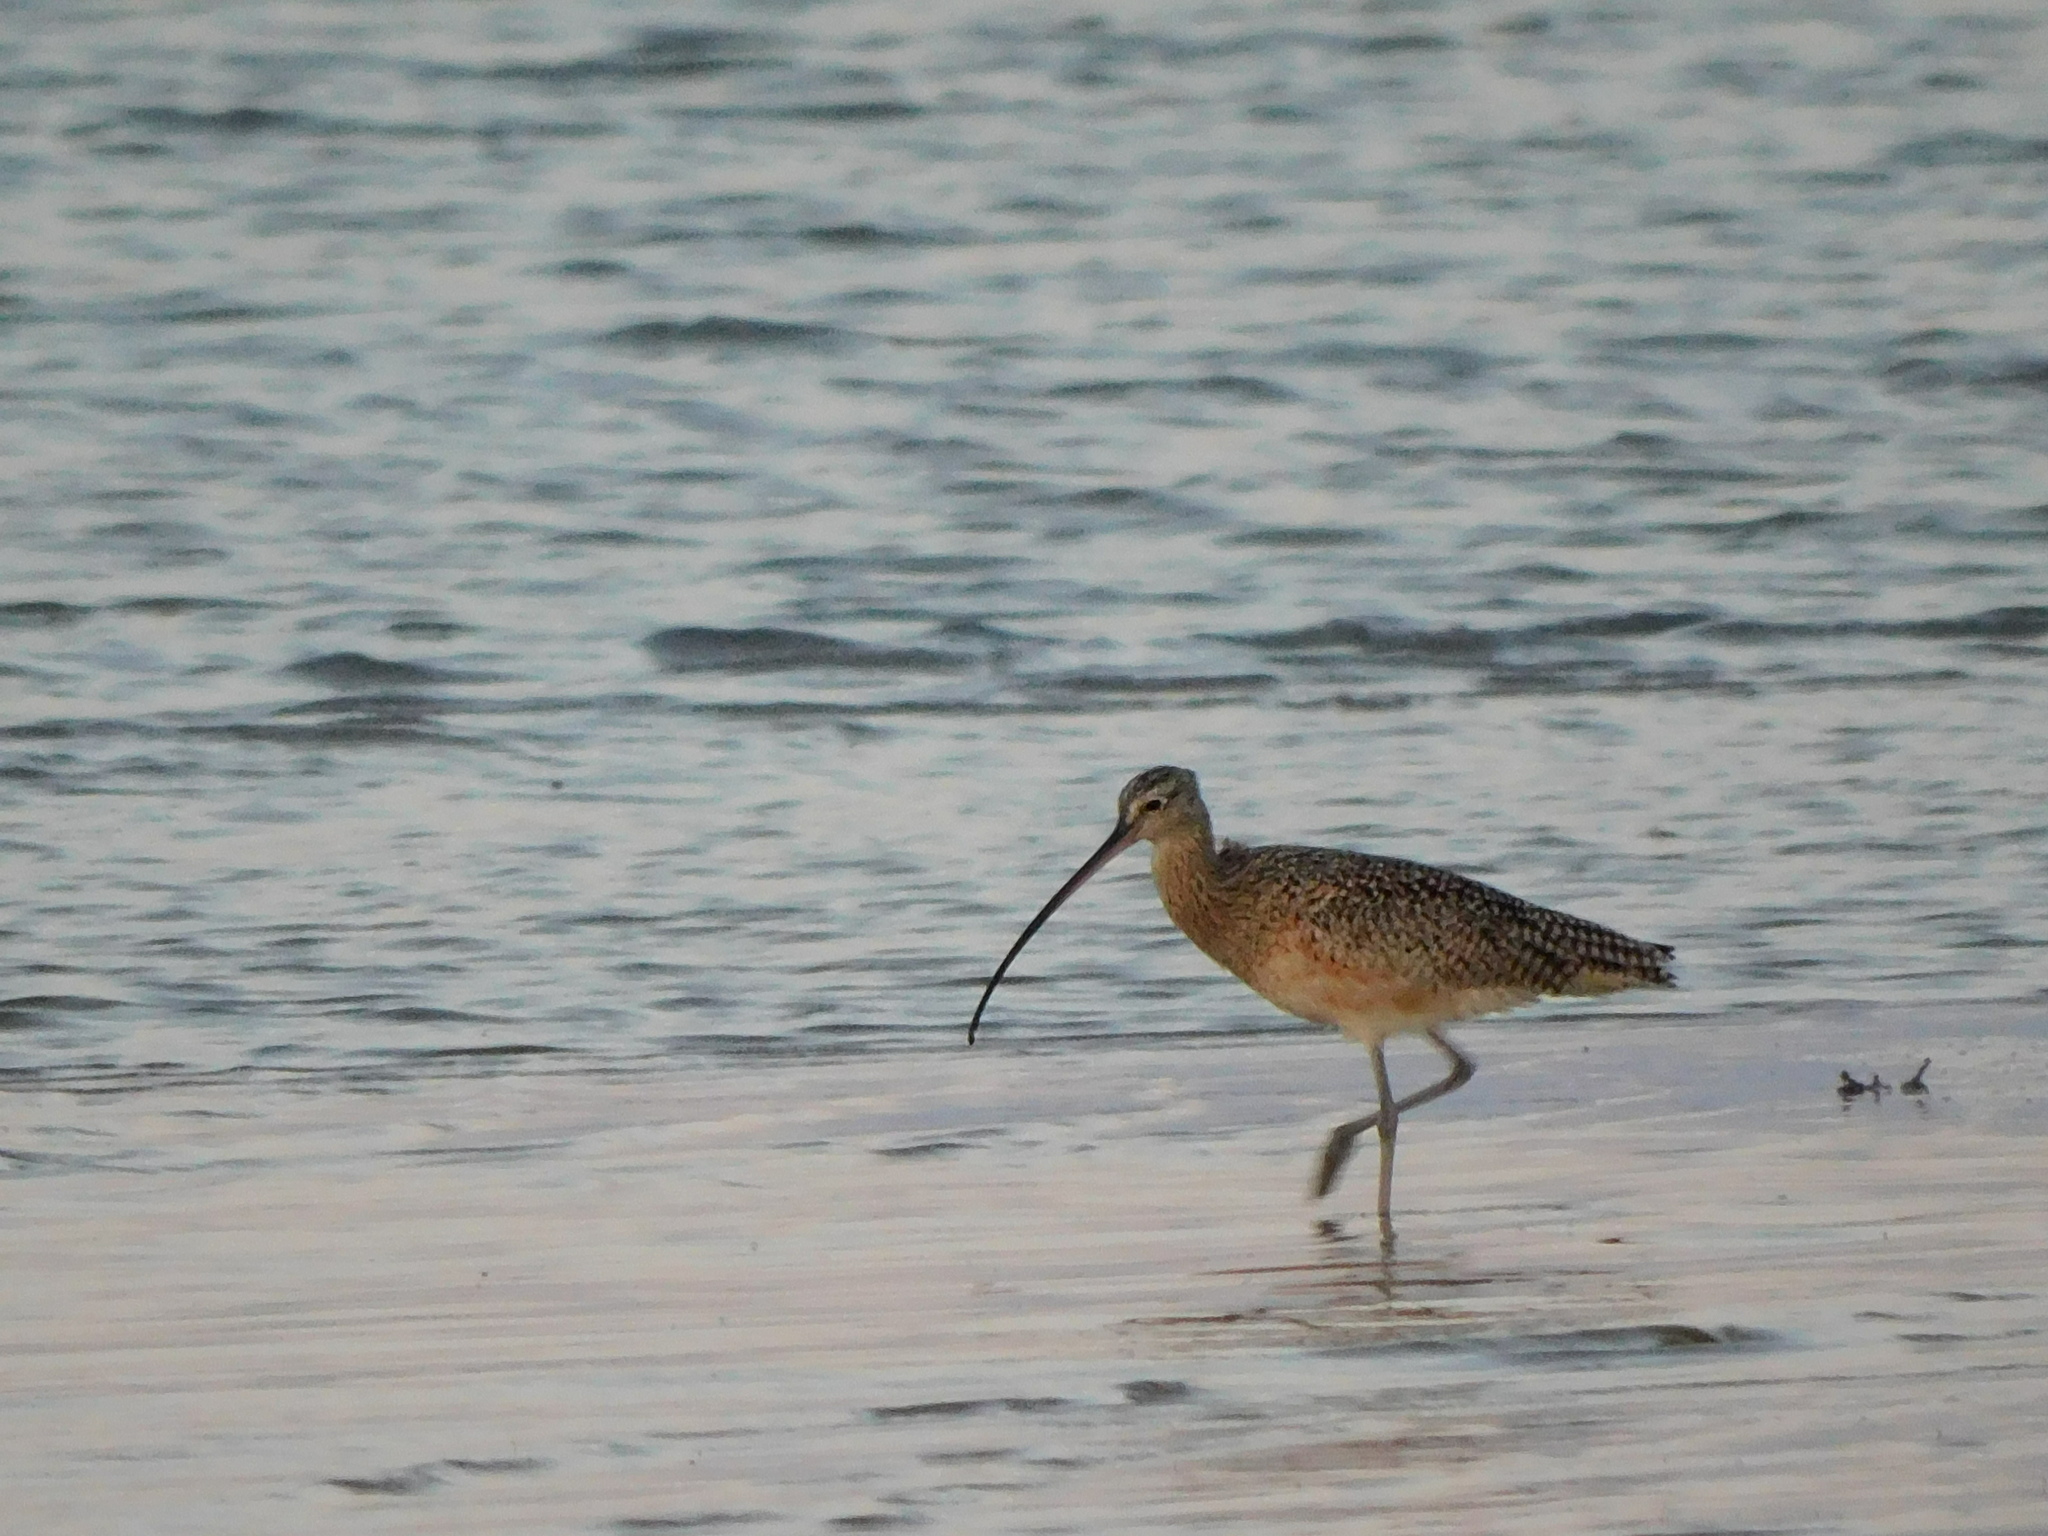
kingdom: Animalia
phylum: Chordata
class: Aves
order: Charadriiformes
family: Scolopacidae
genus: Numenius
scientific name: Numenius americanus
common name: Long-billed curlew
